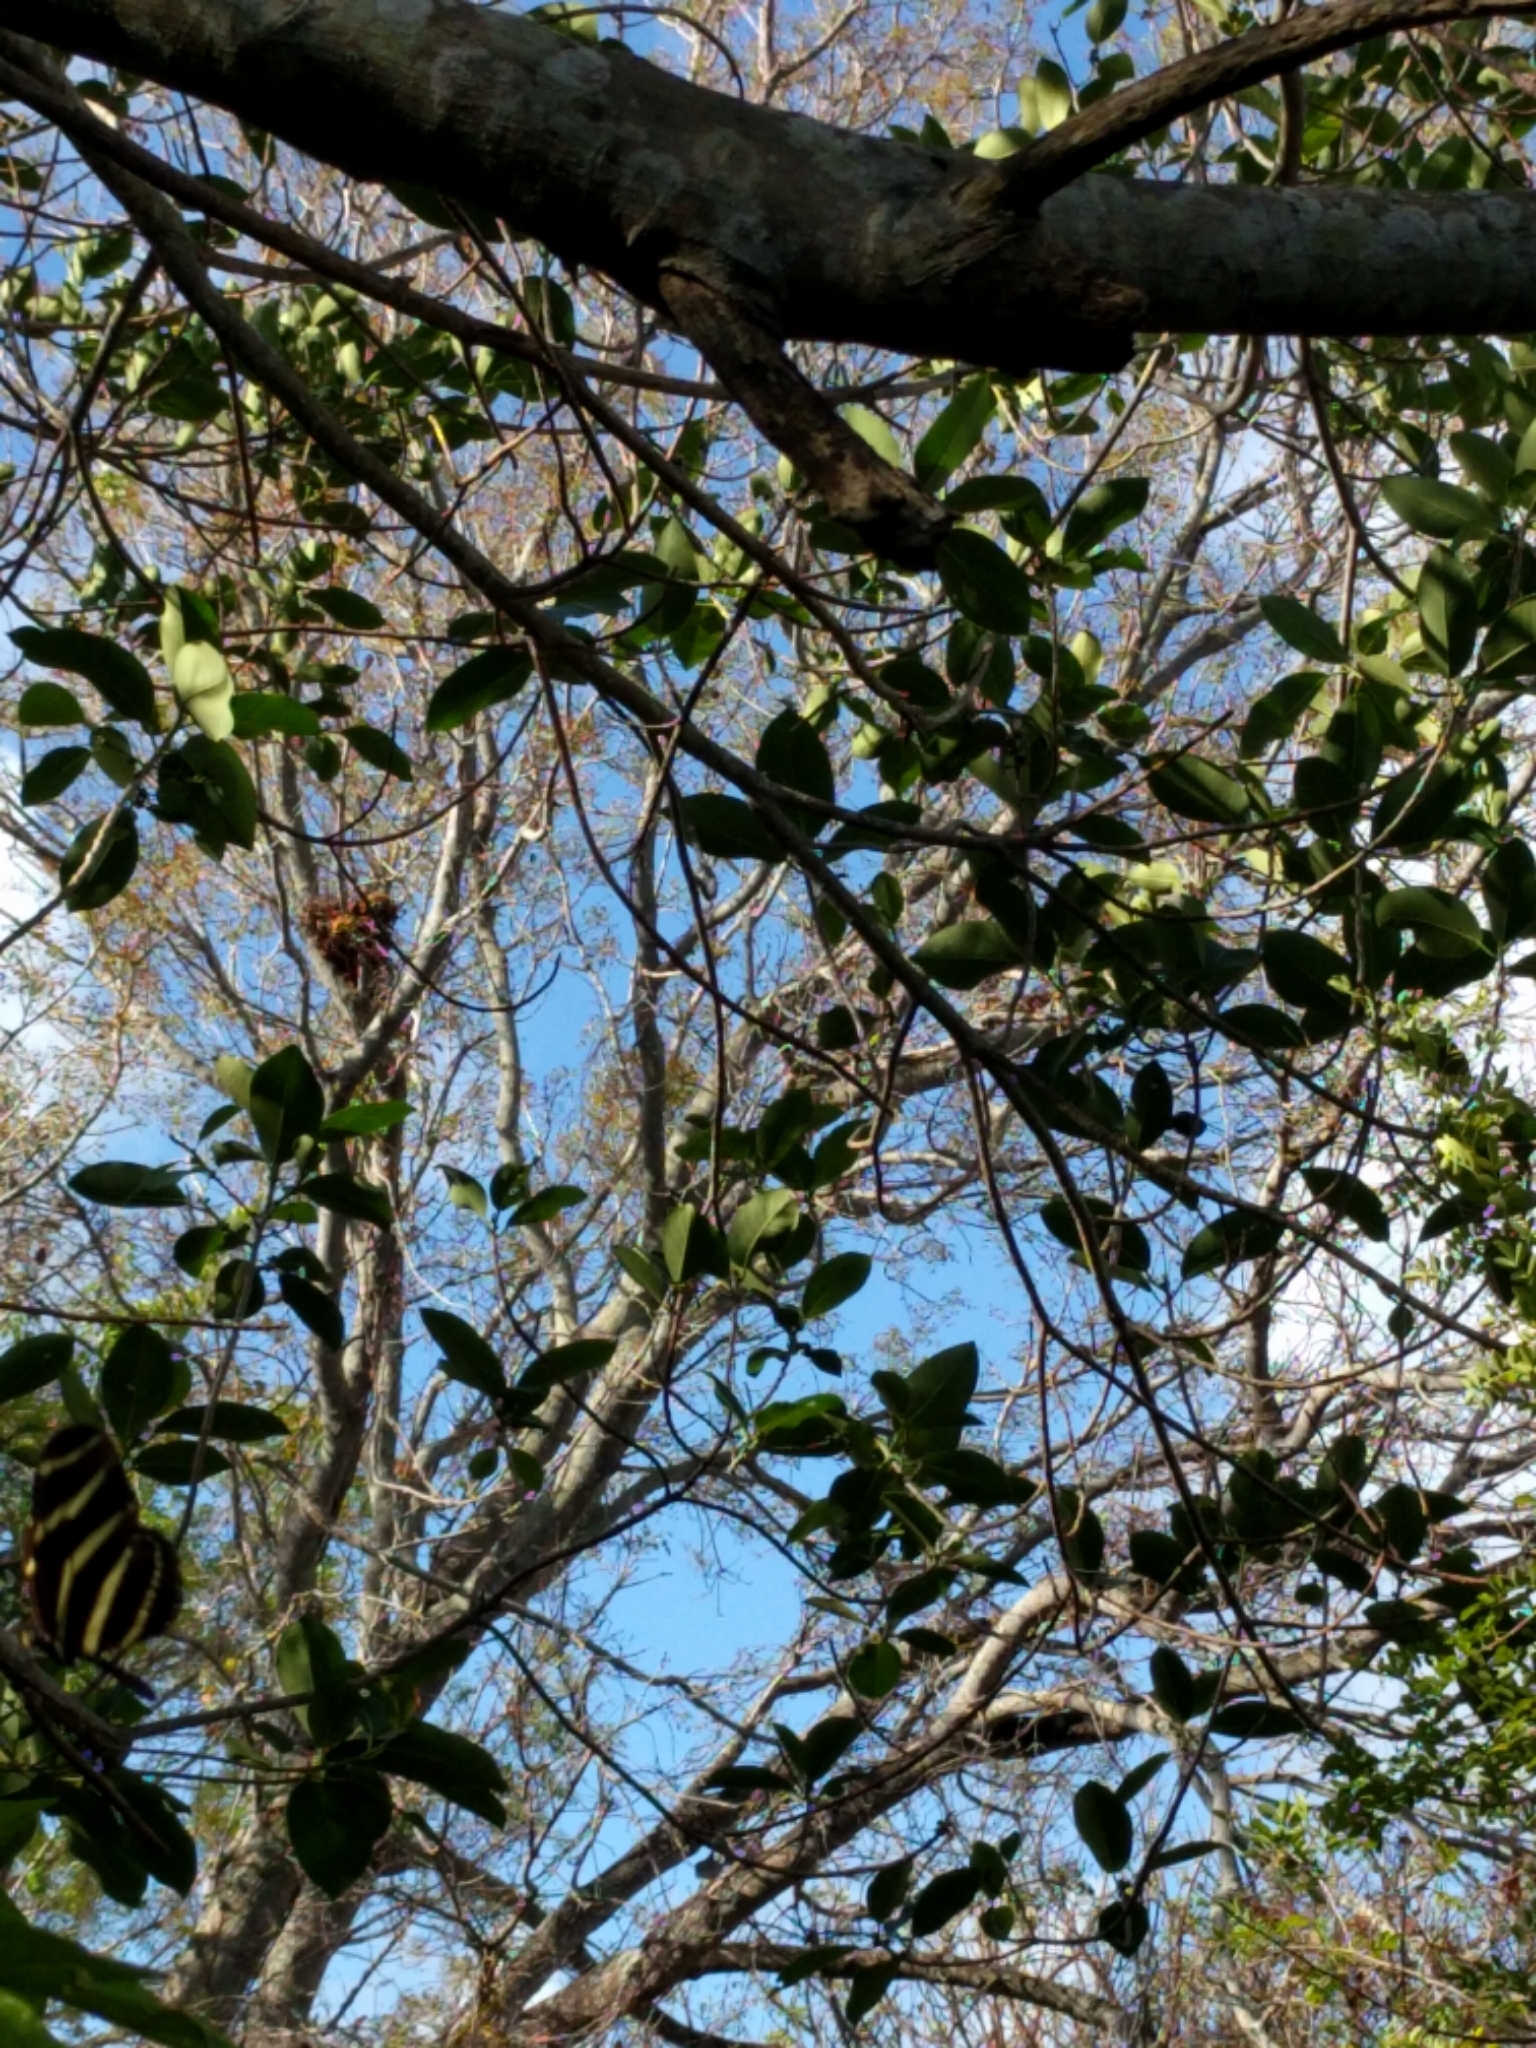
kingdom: Animalia
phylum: Arthropoda
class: Insecta
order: Lepidoptera
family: Nymphalidae
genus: Heliconius
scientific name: Heliconius charithonia
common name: Zebra long wing
